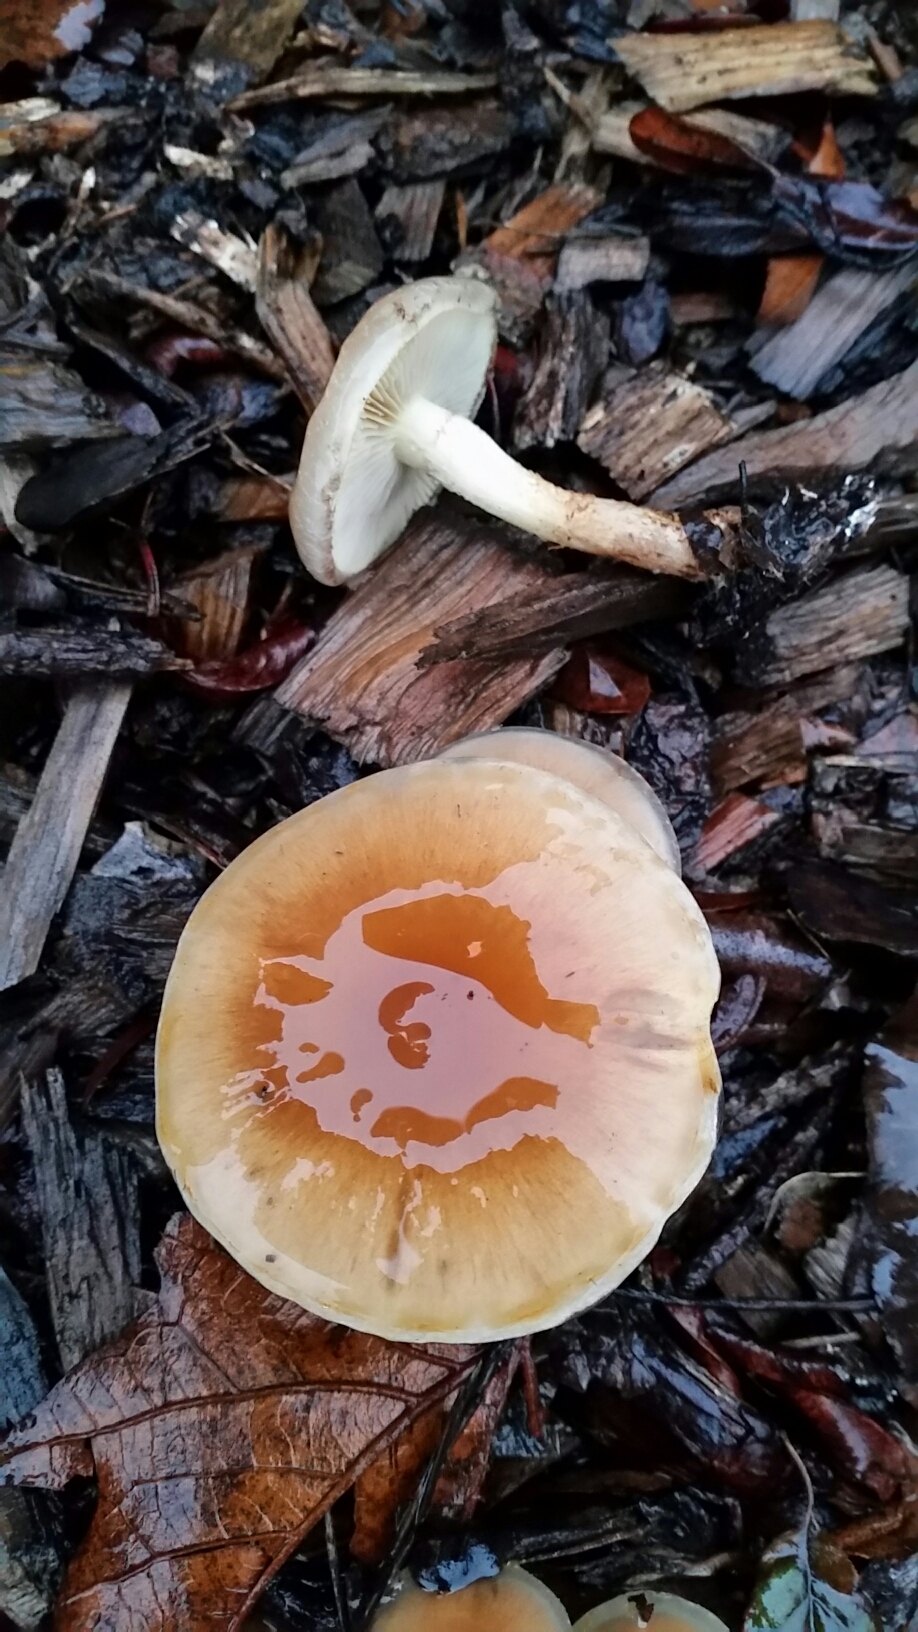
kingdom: Fungi
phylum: Basidiomycota
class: Agaricomycetes
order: Agaricales
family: Strophariaceae
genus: Pholiota
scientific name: Pholiota spumosa
